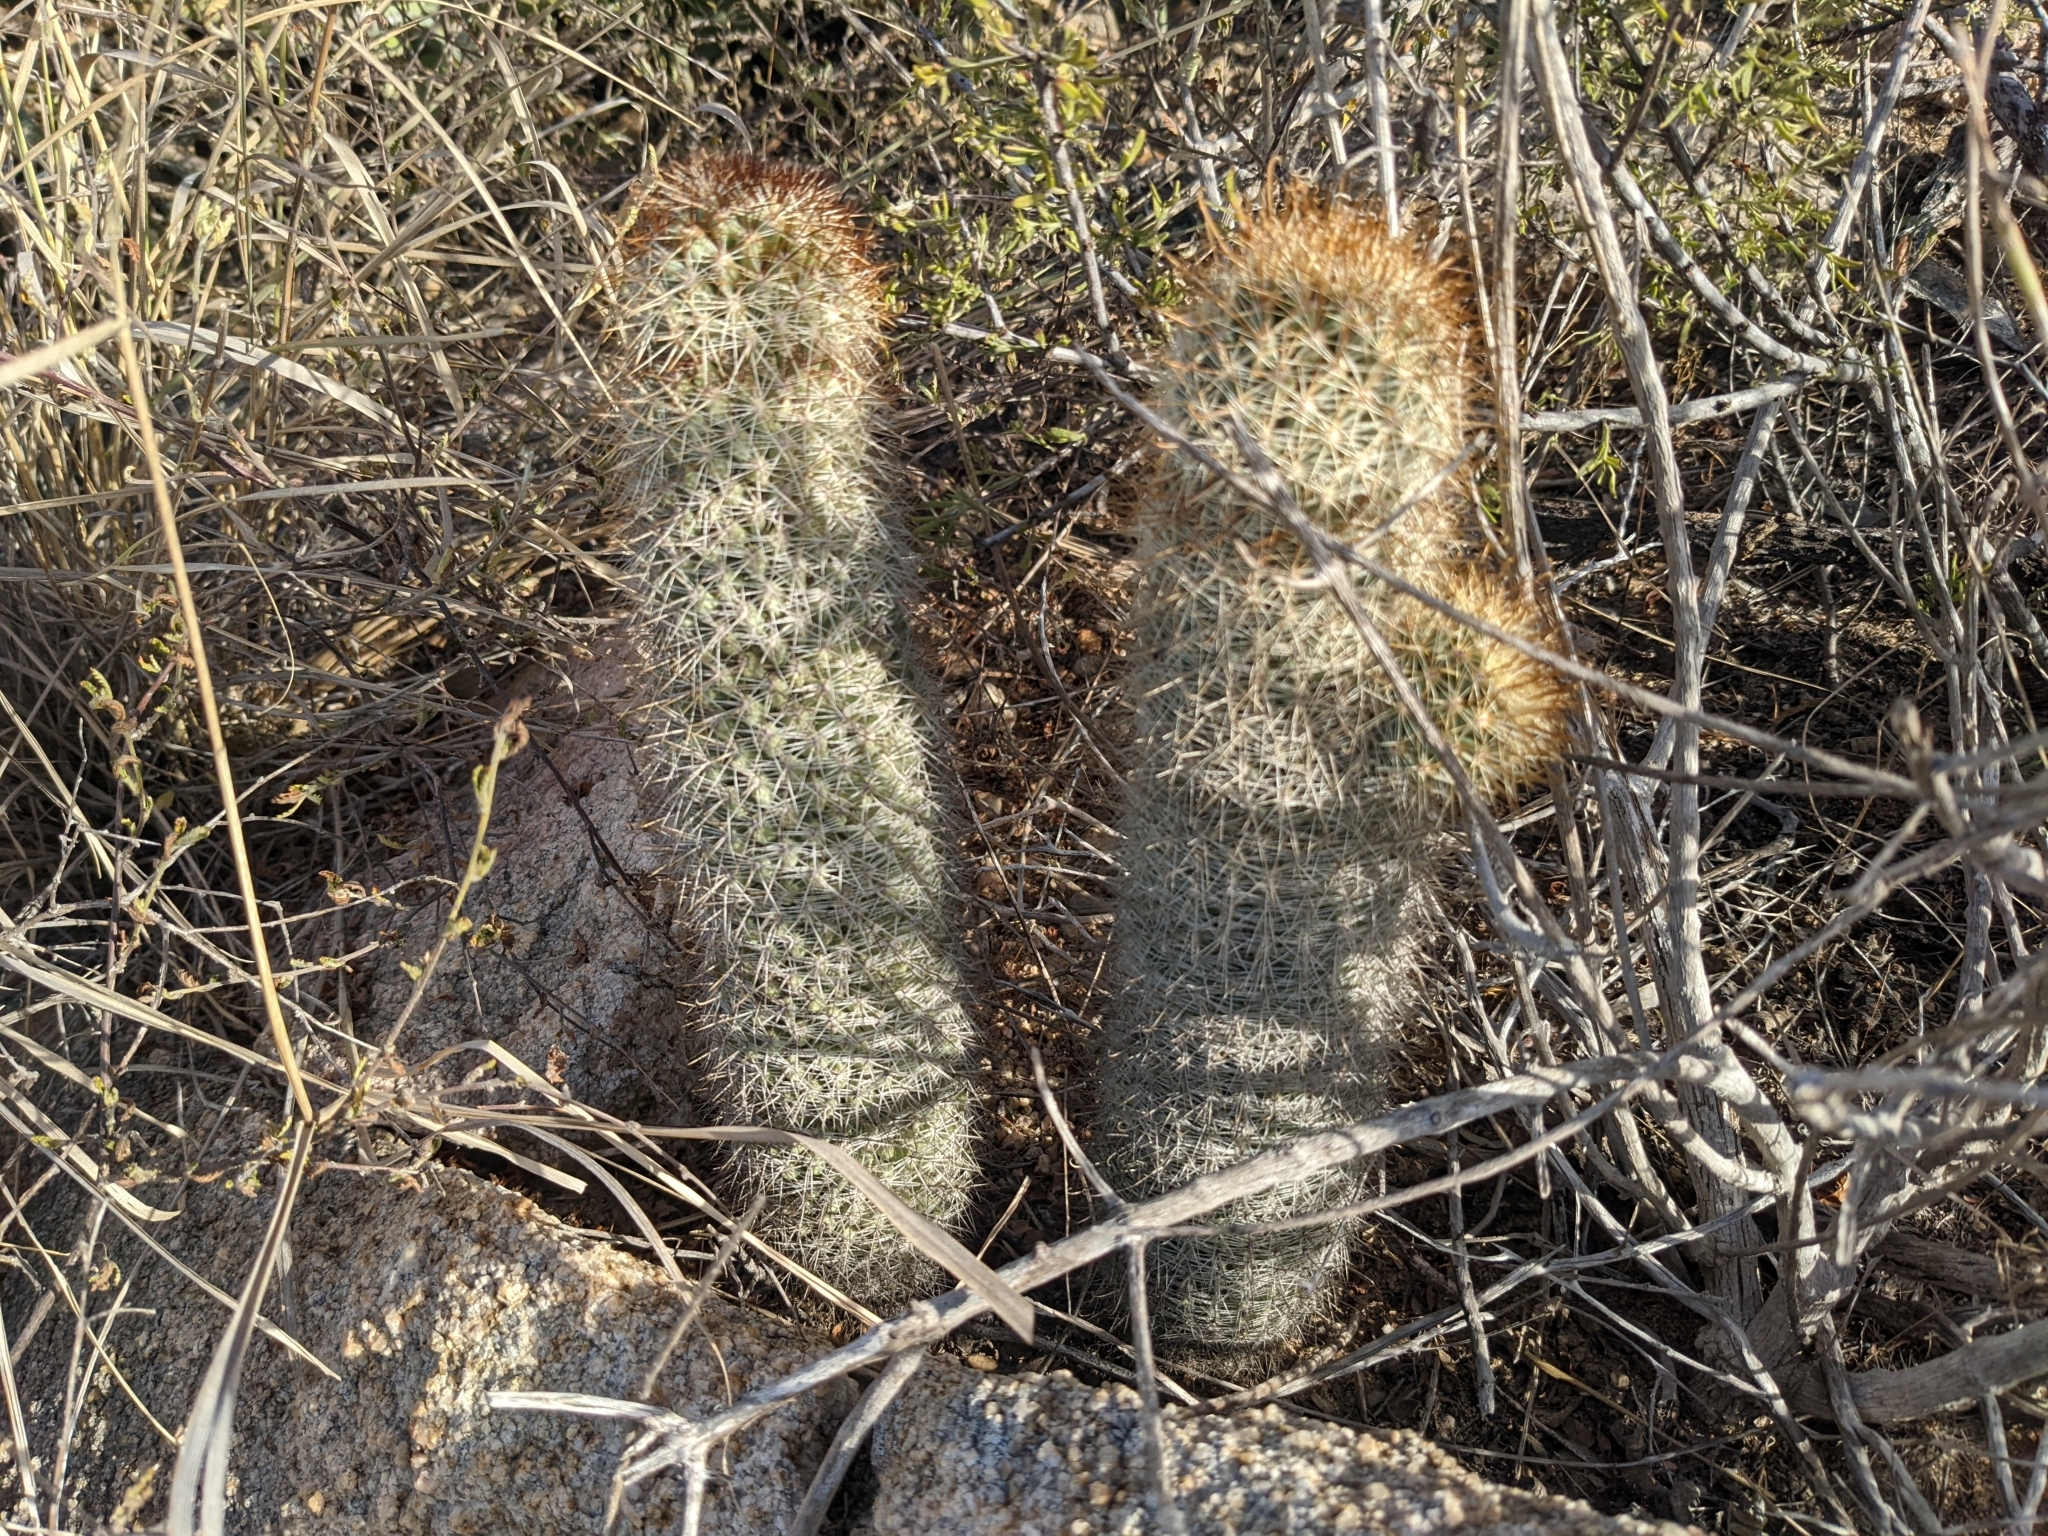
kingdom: Plantae
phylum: Tracheophyta
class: Magnoliopsida
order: Caryophyllales
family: Cactaceae
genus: Cochemiea
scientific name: Cochemiea armillata
